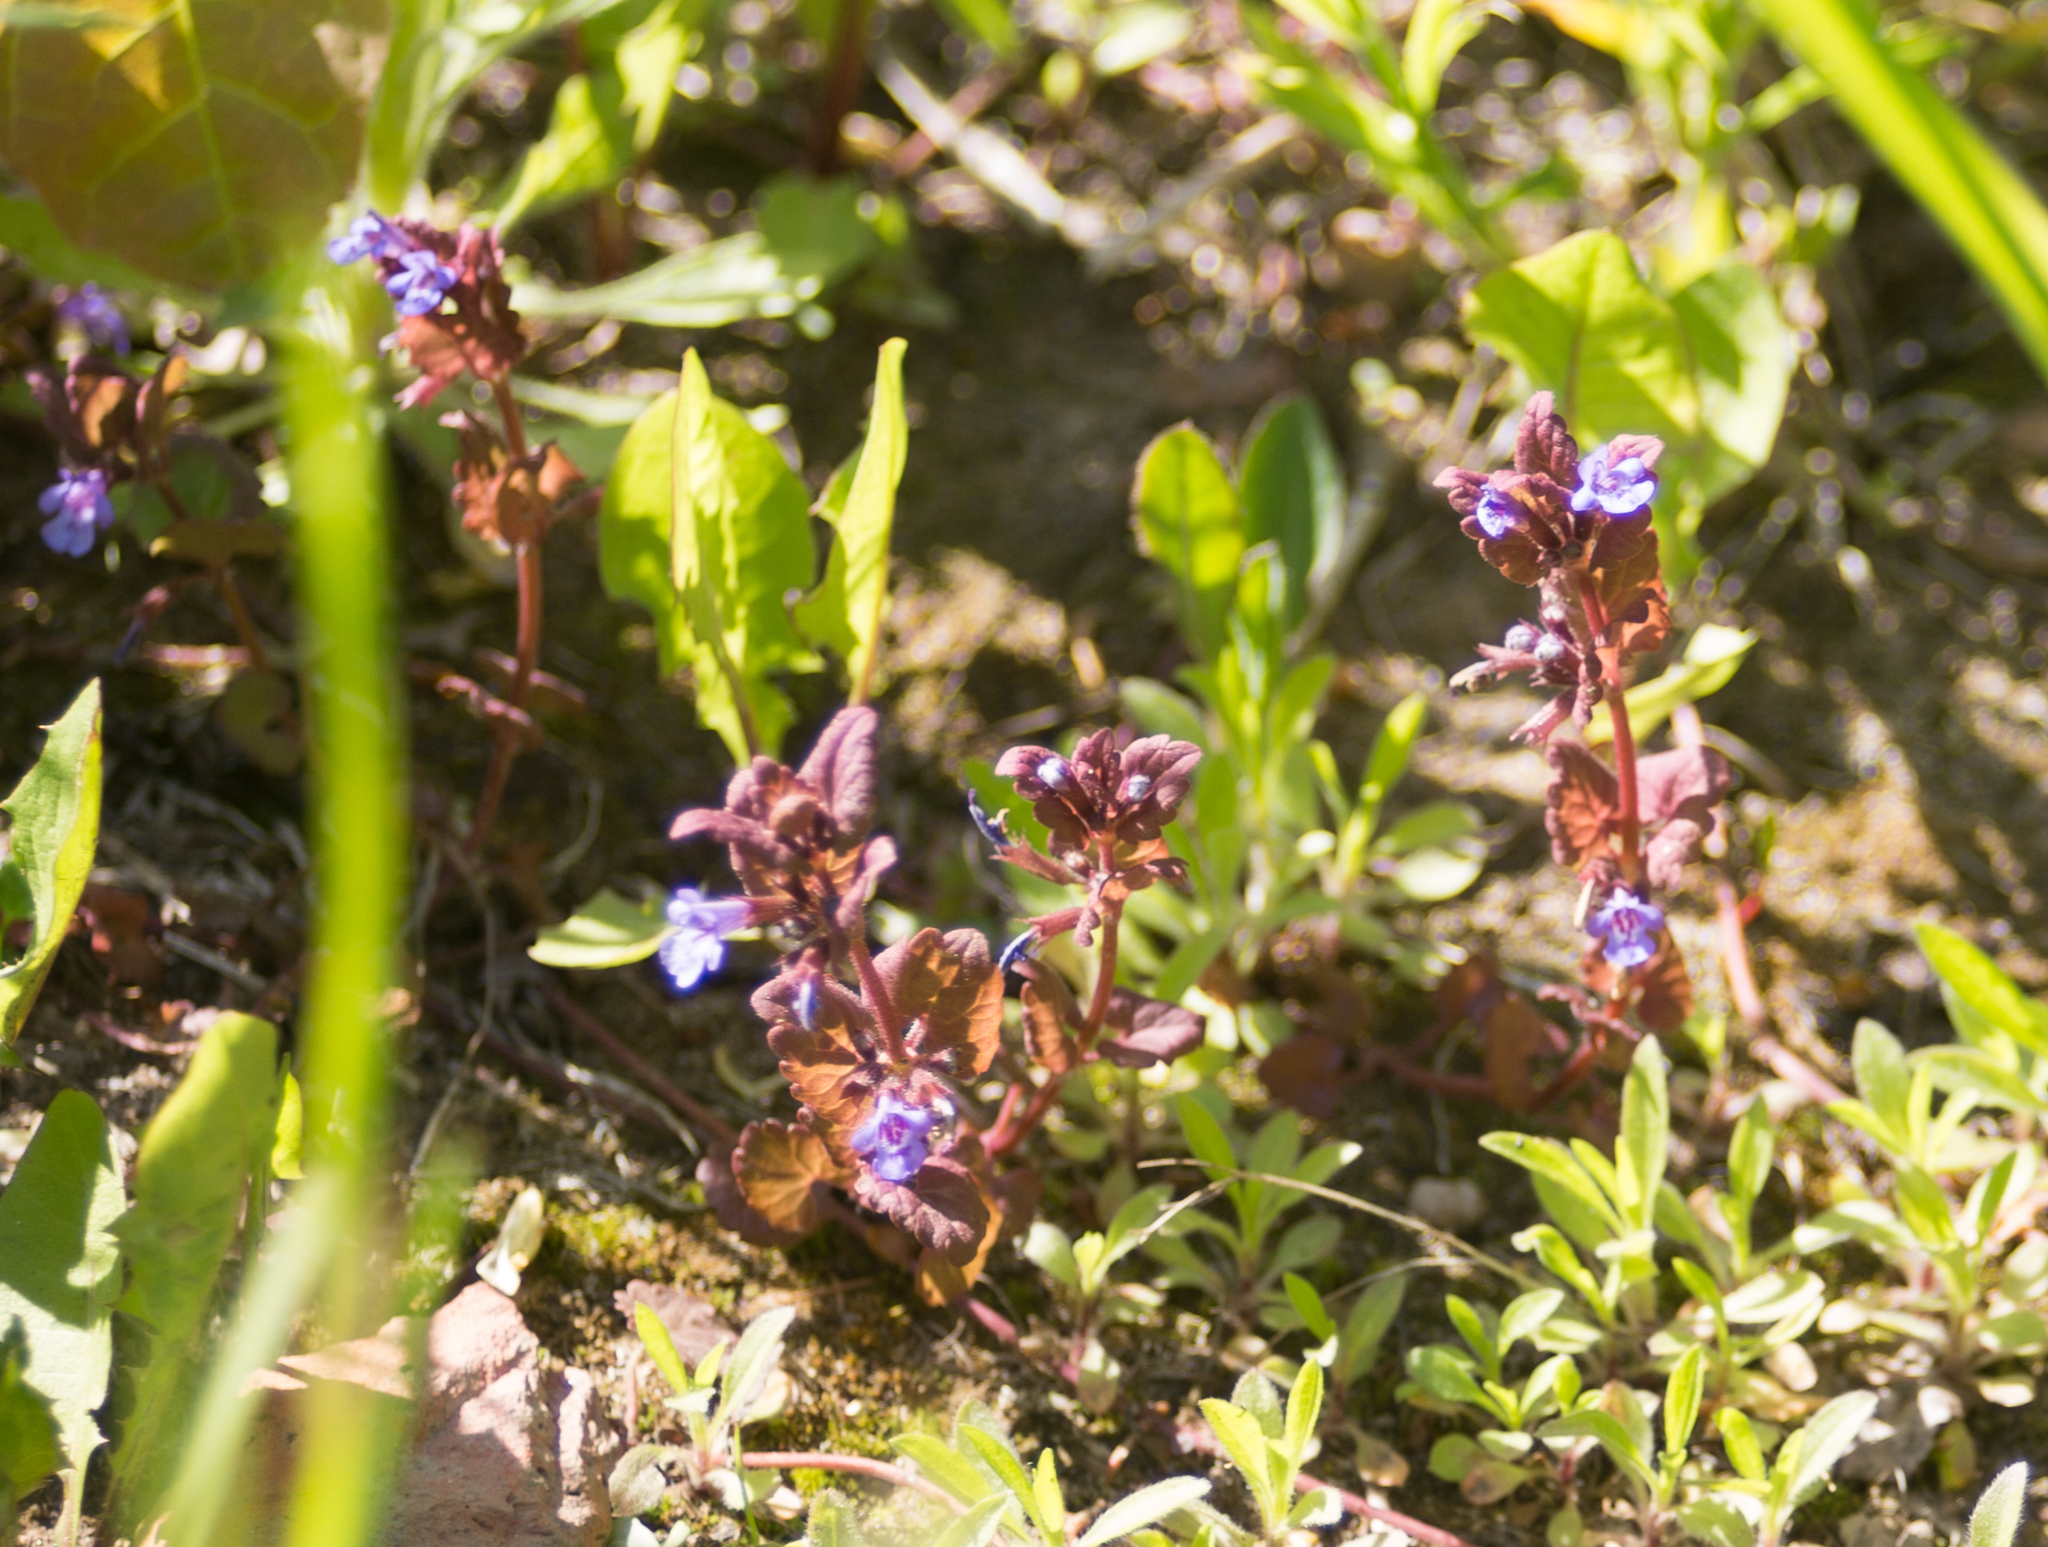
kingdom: Plantae
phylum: Tracheophyta
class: Magnoliopsida
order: Lamiales
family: Lamiaceae
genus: Glechoma
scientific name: Glechoma hederacea
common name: Ground ivy
